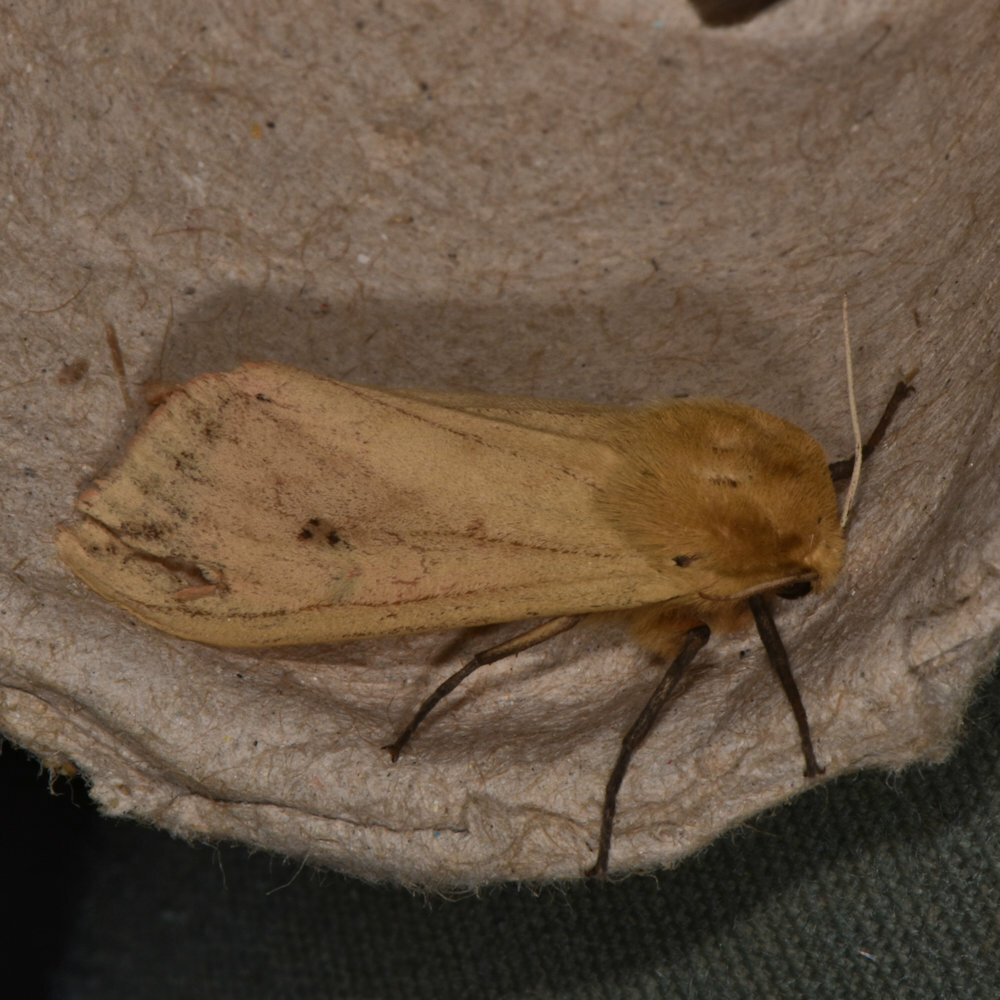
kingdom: Animalia
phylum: Arthropoda
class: Insecta
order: Lepidoptera
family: Erebidae
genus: Pyrrharctia
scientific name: Pyrrharctia isabella
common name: Isabella tiger moth
